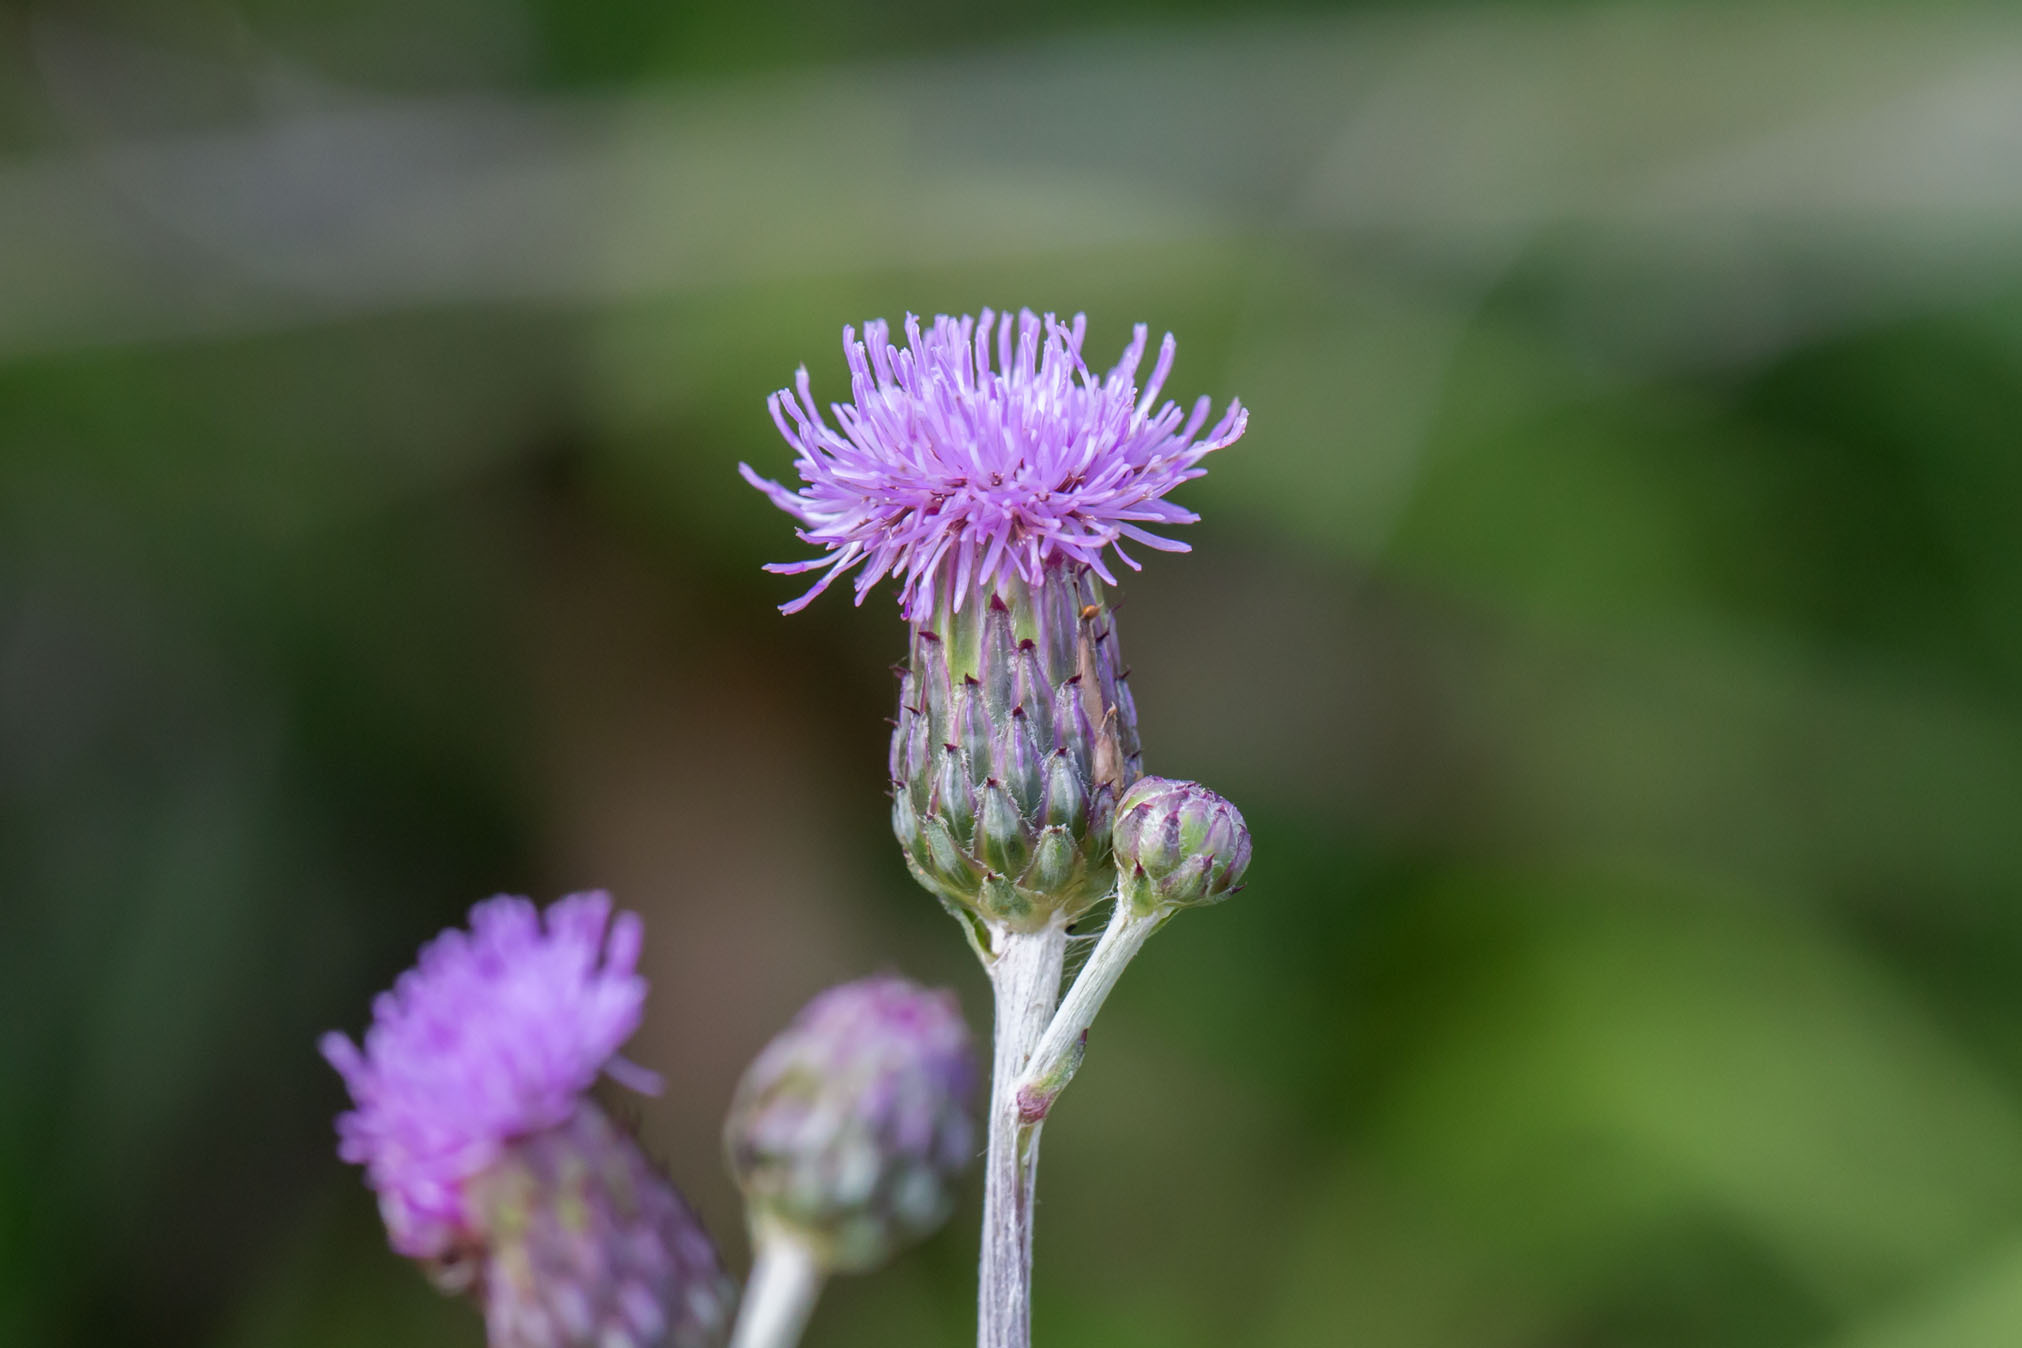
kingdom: Plantae
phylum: Tracheophyta
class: Magnoliopsida
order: Asterales
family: Asteraceae
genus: Cirsium
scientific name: Cirsium arvense
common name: Creeping thistle
